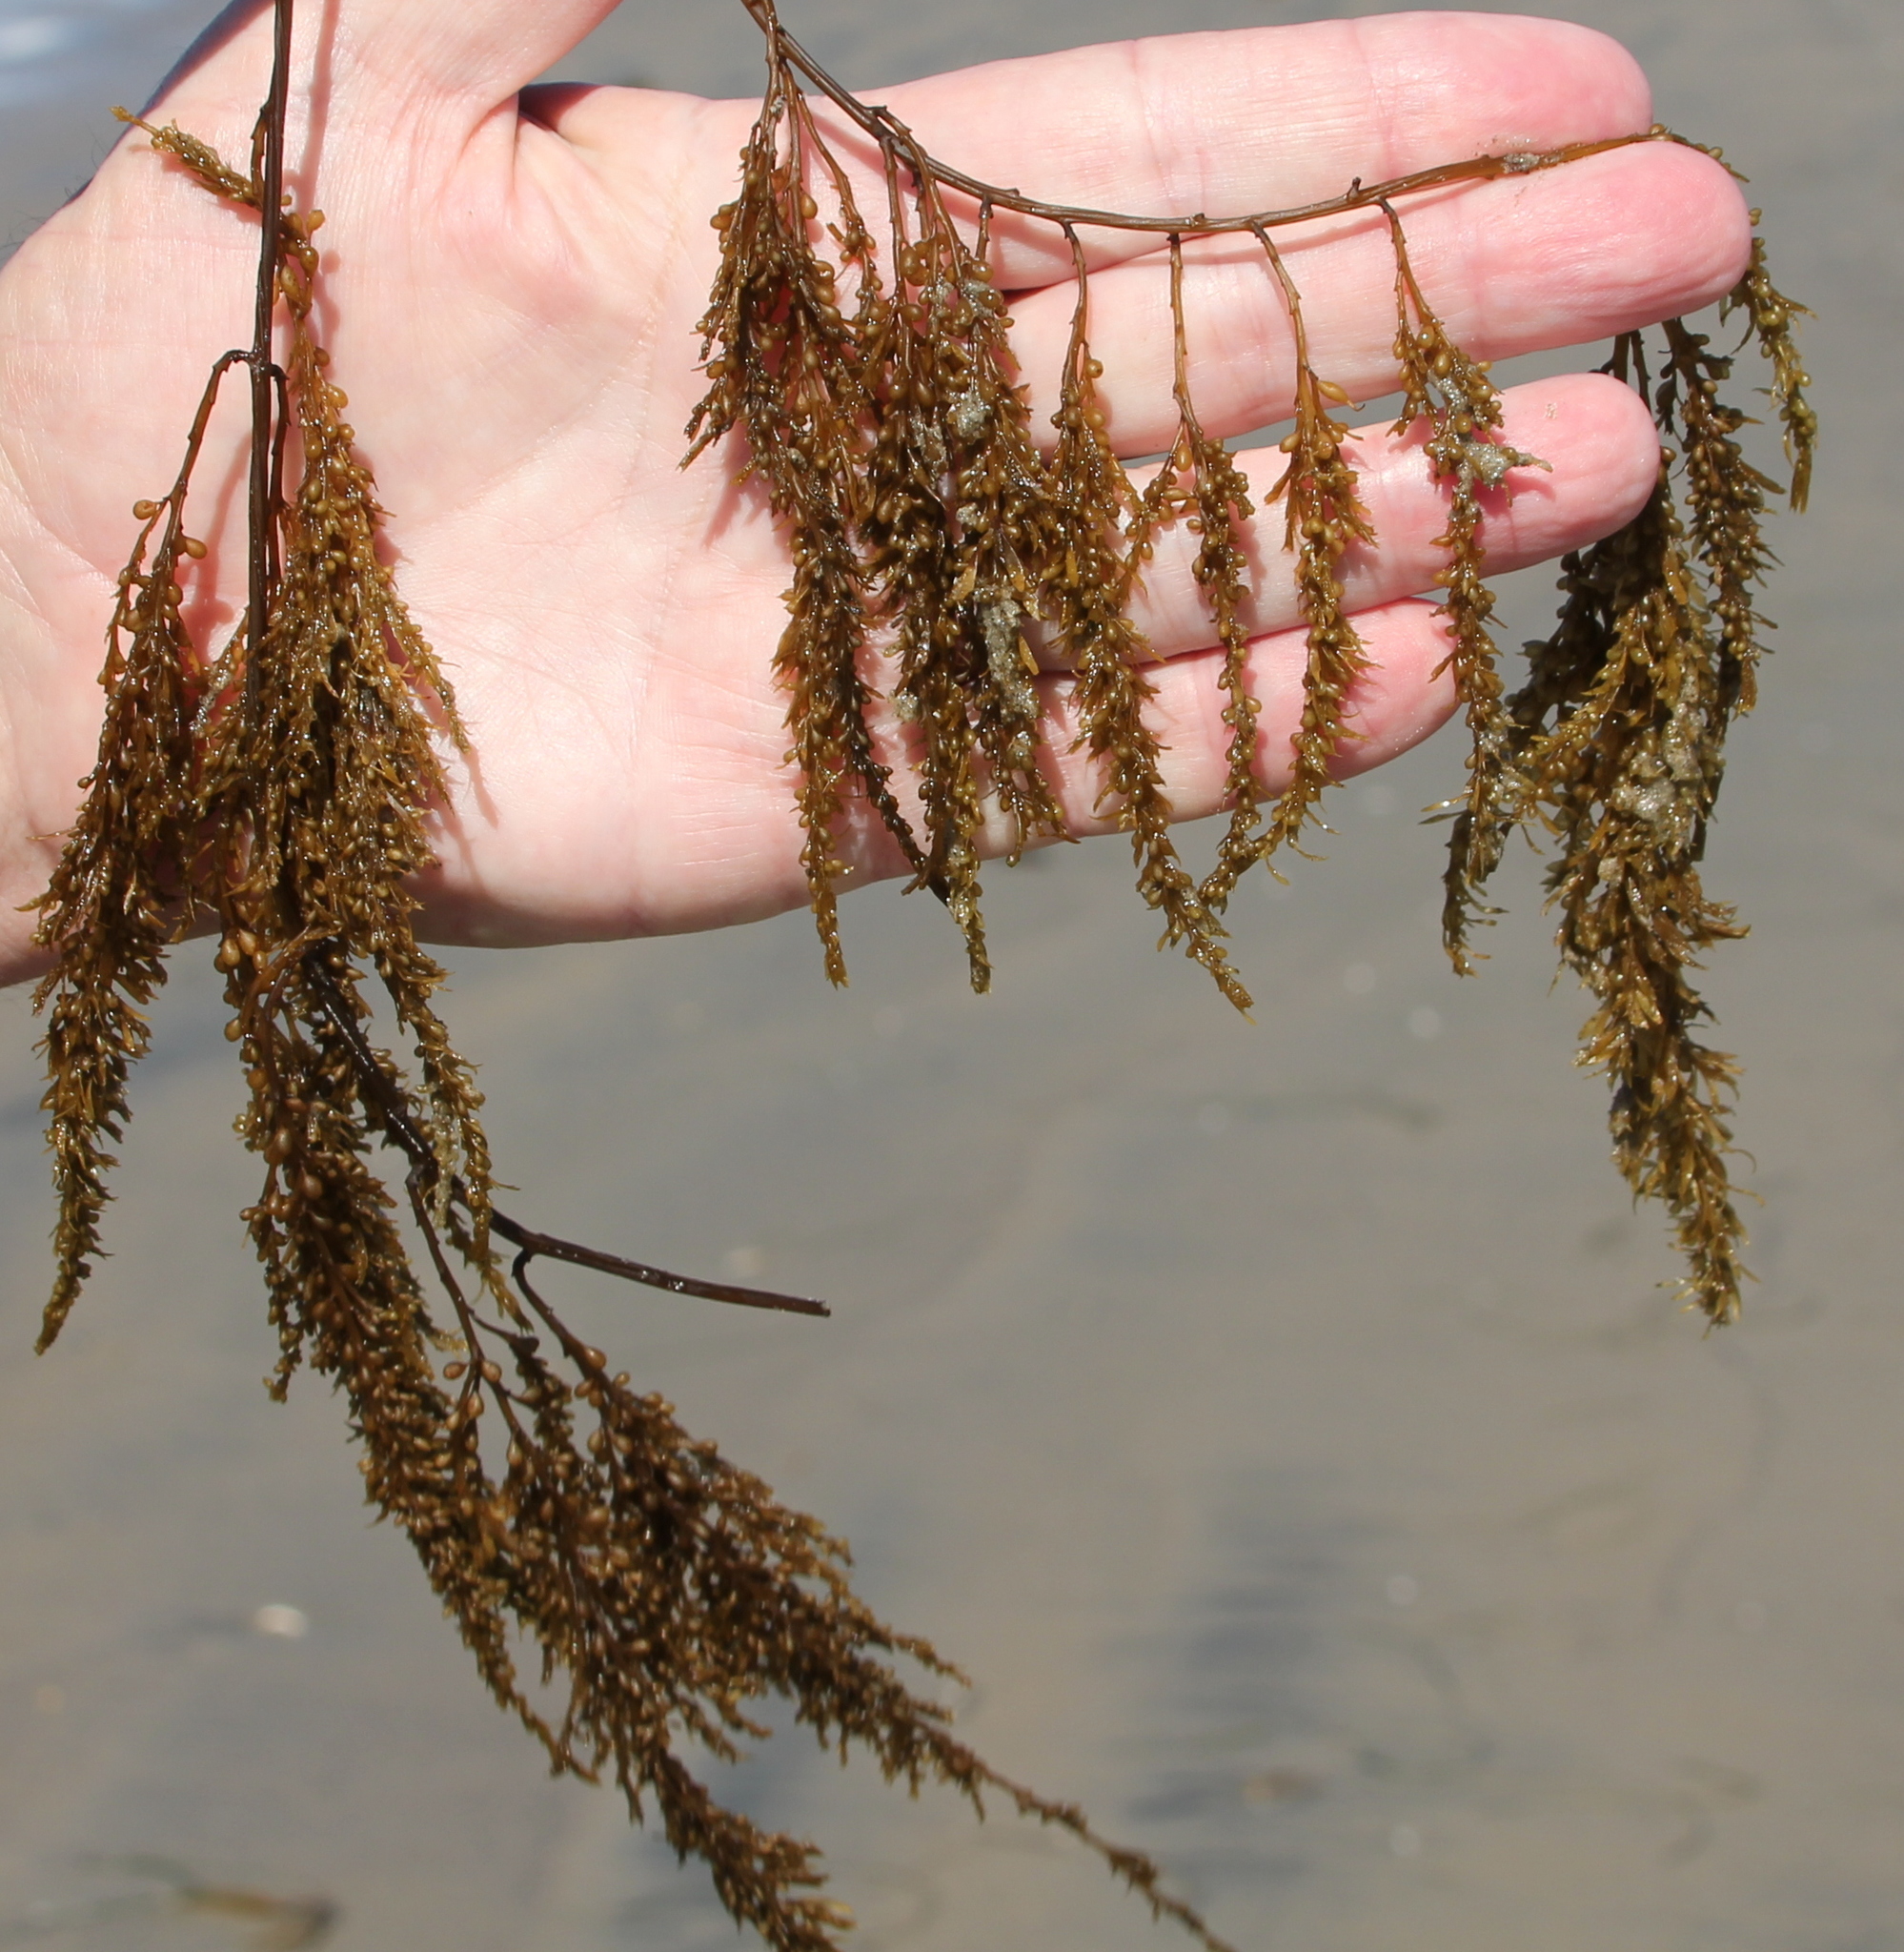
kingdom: Chromista
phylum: Ochrophyta
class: Phaeophyceae
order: Fucales
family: Sargassaceae
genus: Sargassum
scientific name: Sargassum muticum
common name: Japweed
